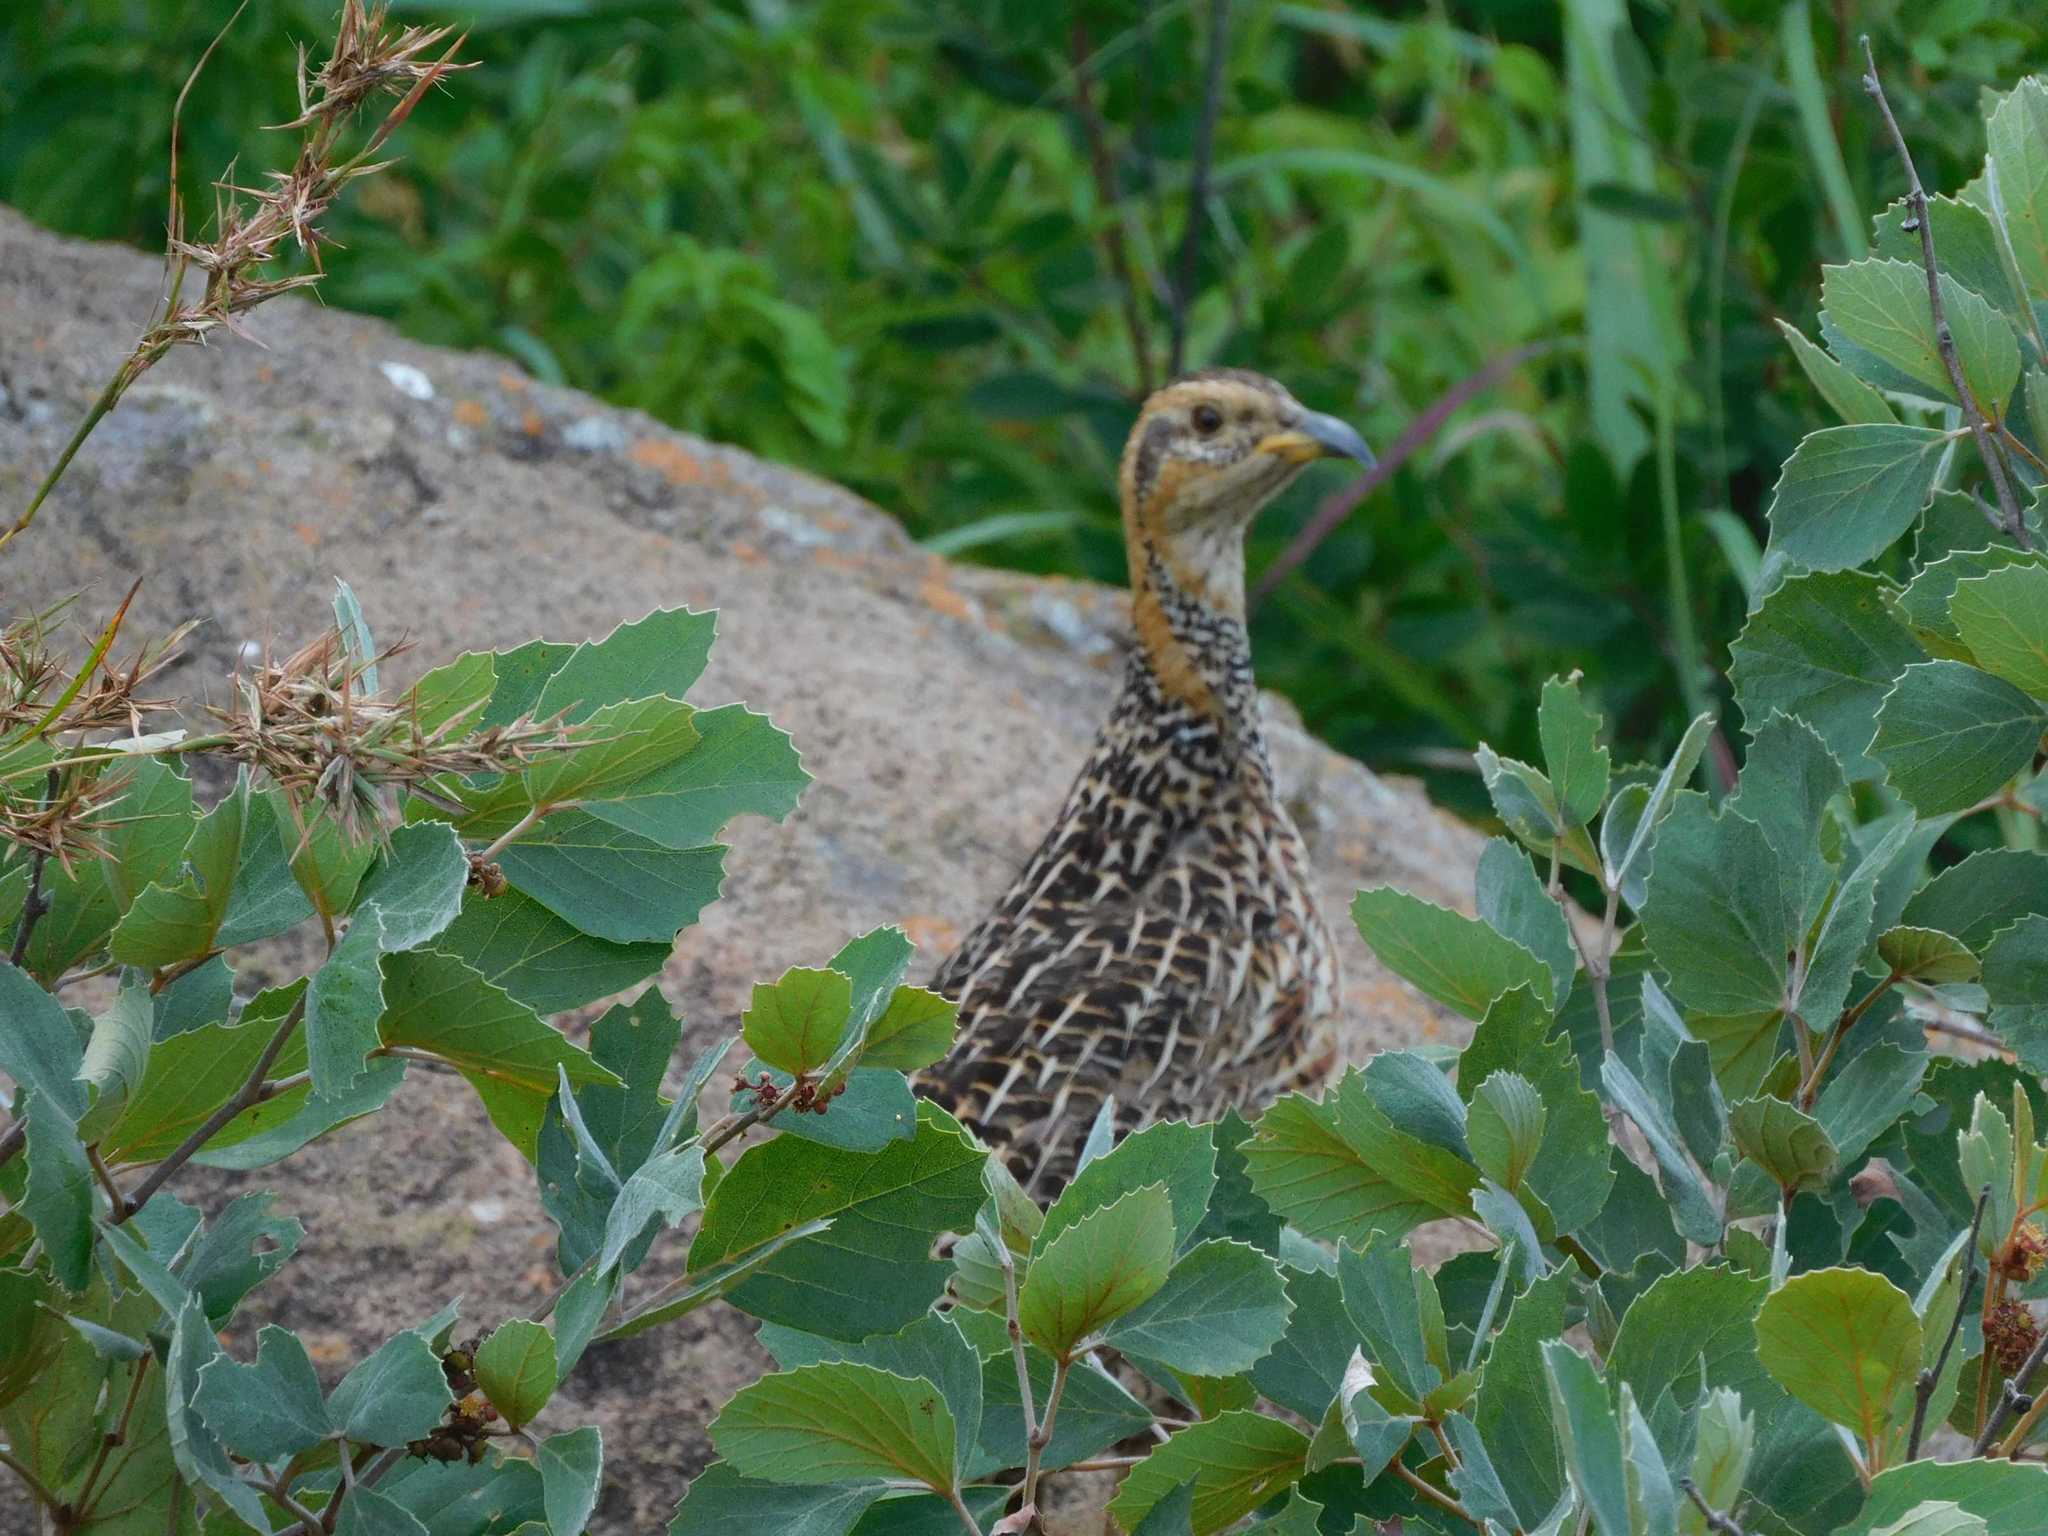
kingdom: Animalia
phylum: Chordata
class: Aves
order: Galliformes
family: Phasianidae
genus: Scleroptila
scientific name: Scleroptila levaillantii
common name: Red-winged francolin
